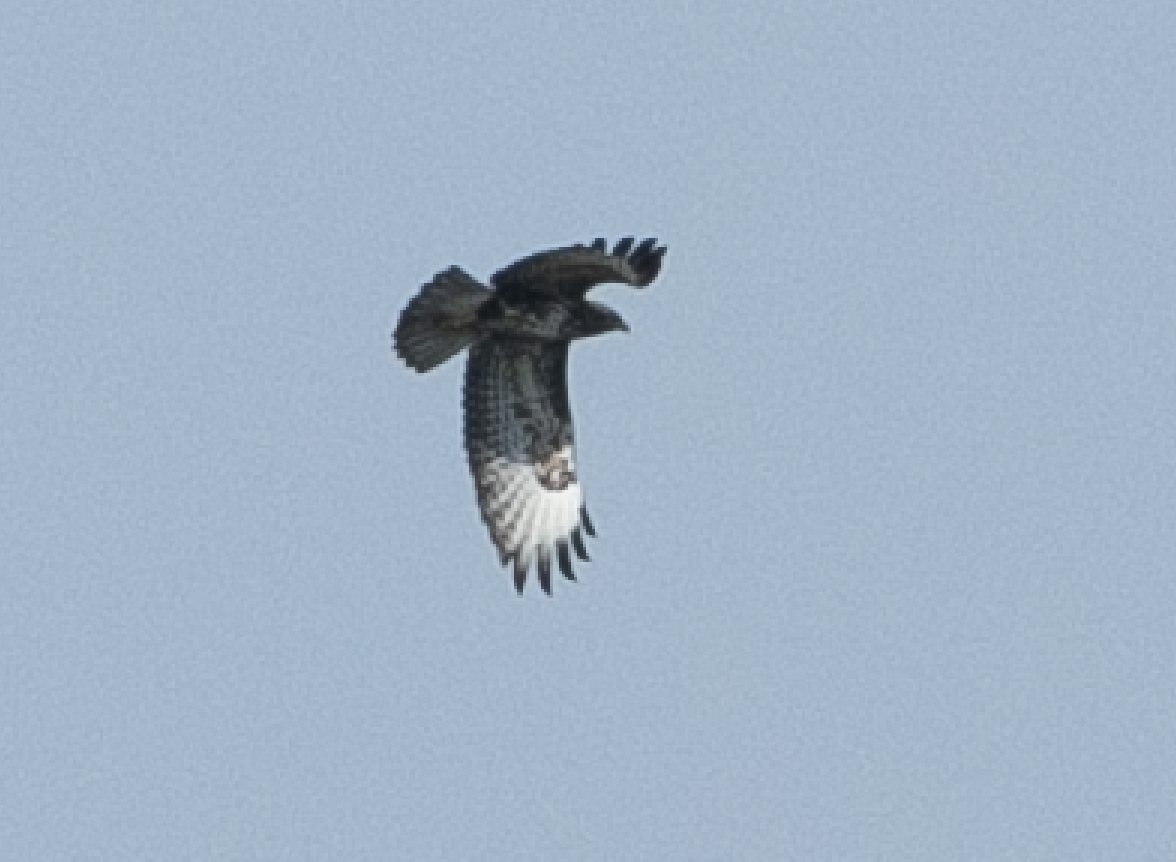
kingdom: Animalia
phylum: Chordata
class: Aves
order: Accipitriformes
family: Accipitridae
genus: Buteo
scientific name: Buteo buteo
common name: Common buzzard
